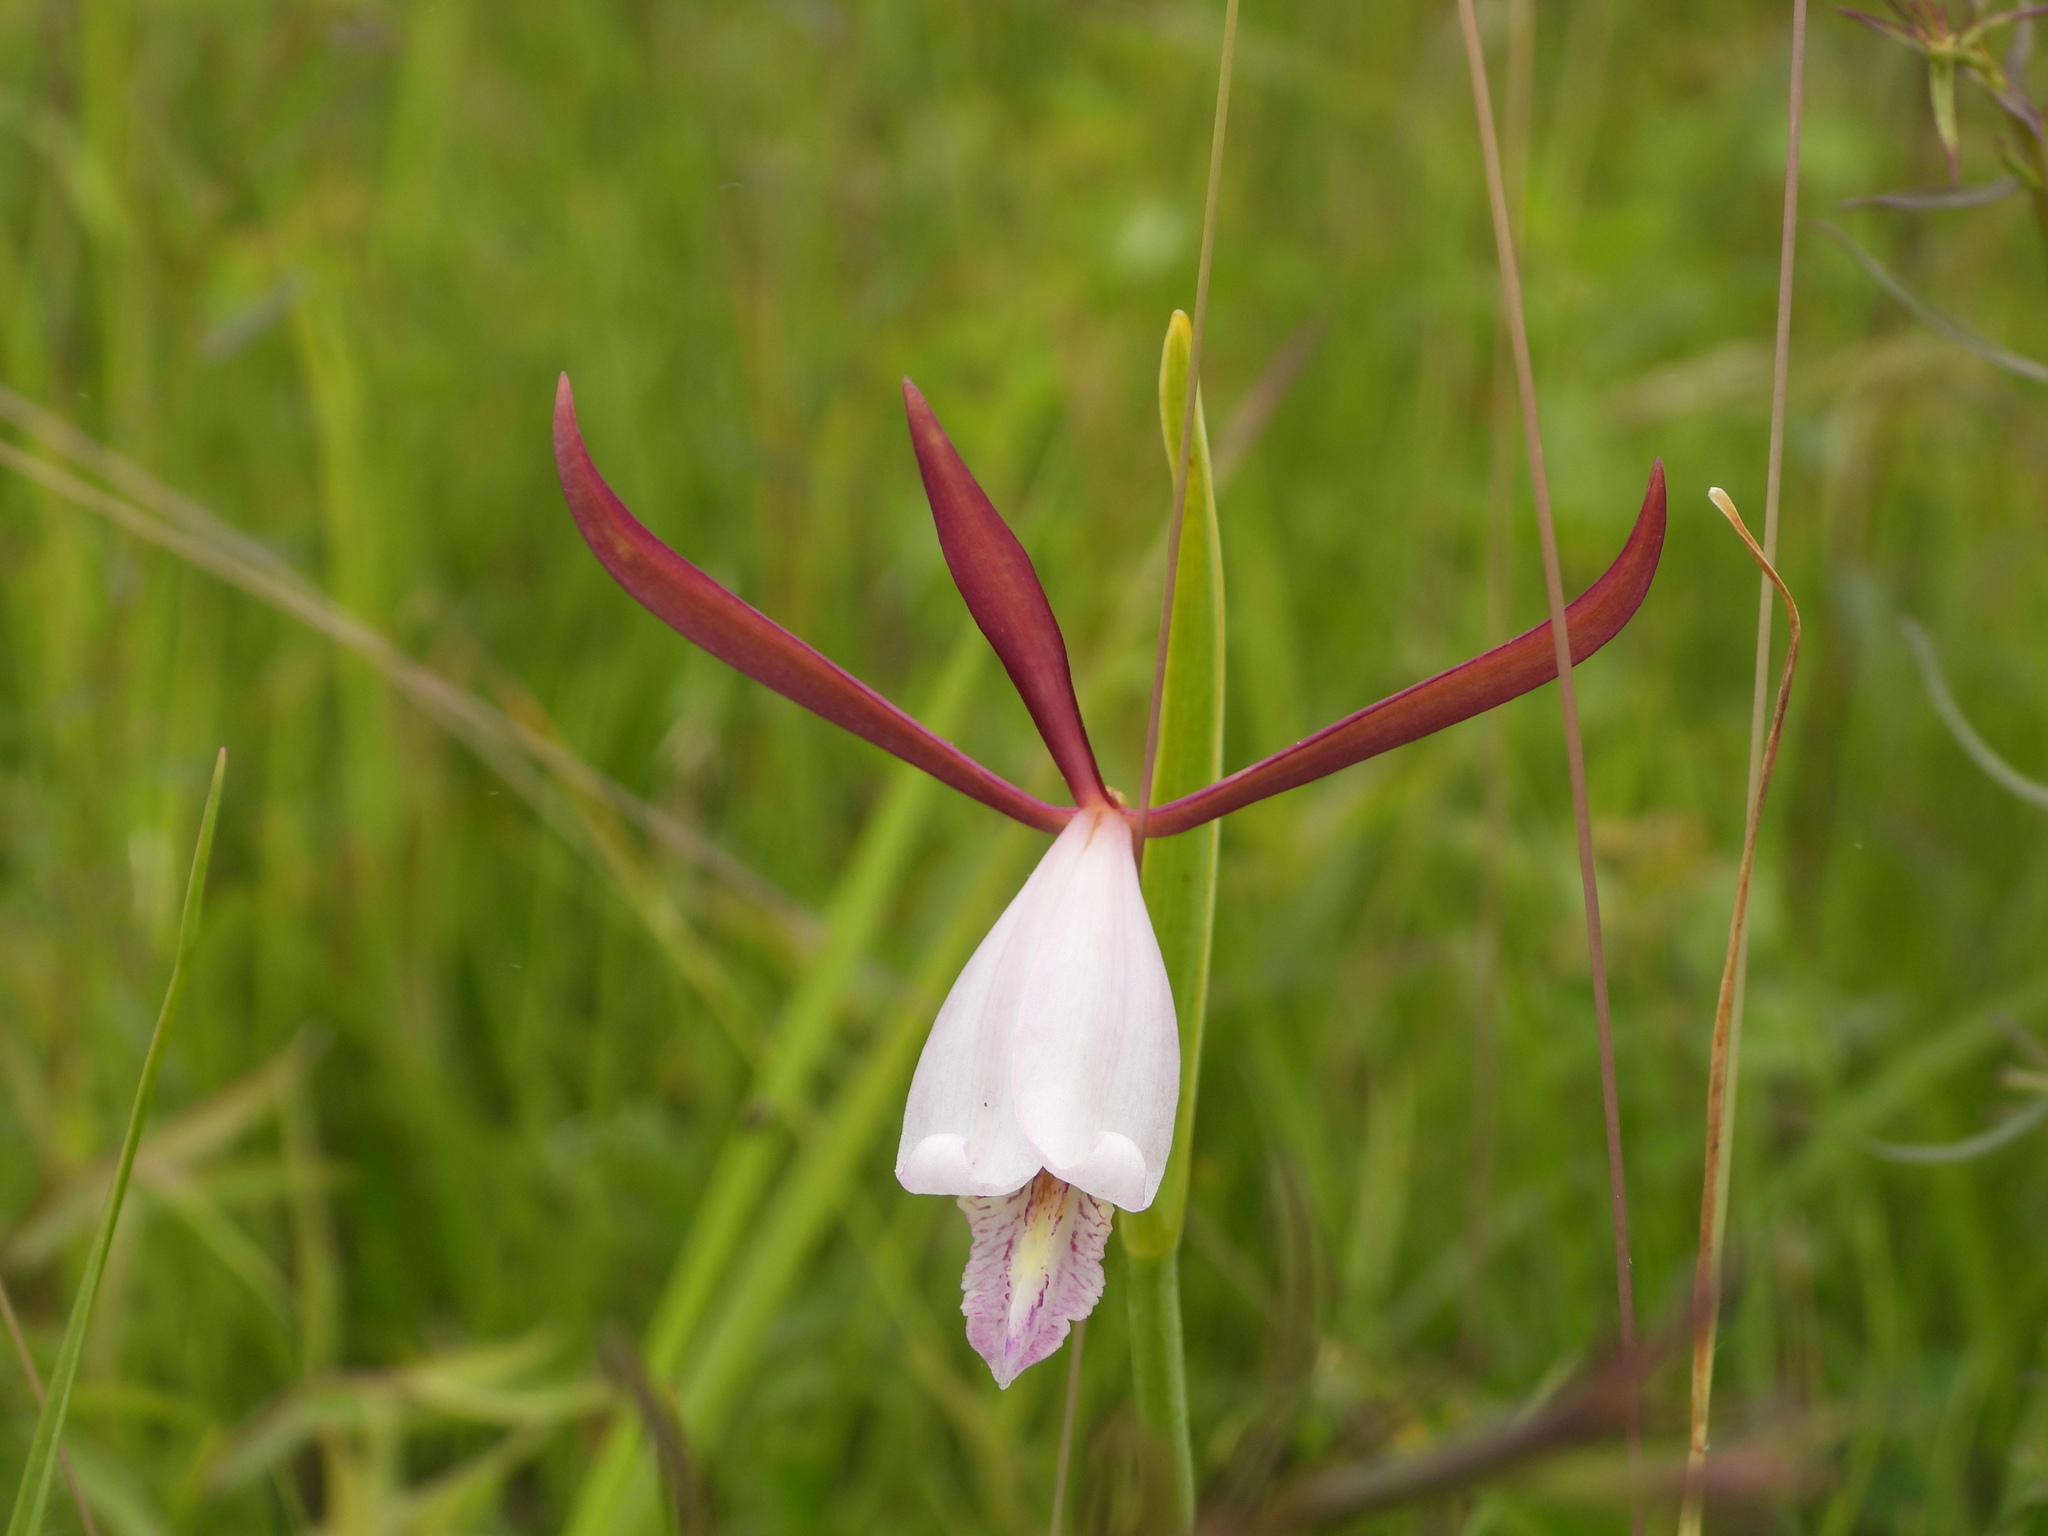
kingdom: Plantae
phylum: Tracheophyta
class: Liliopsida
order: Asparagales
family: Orchidaceae
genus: Cleistesiopsis
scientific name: Cleistesiopsis bifaria
